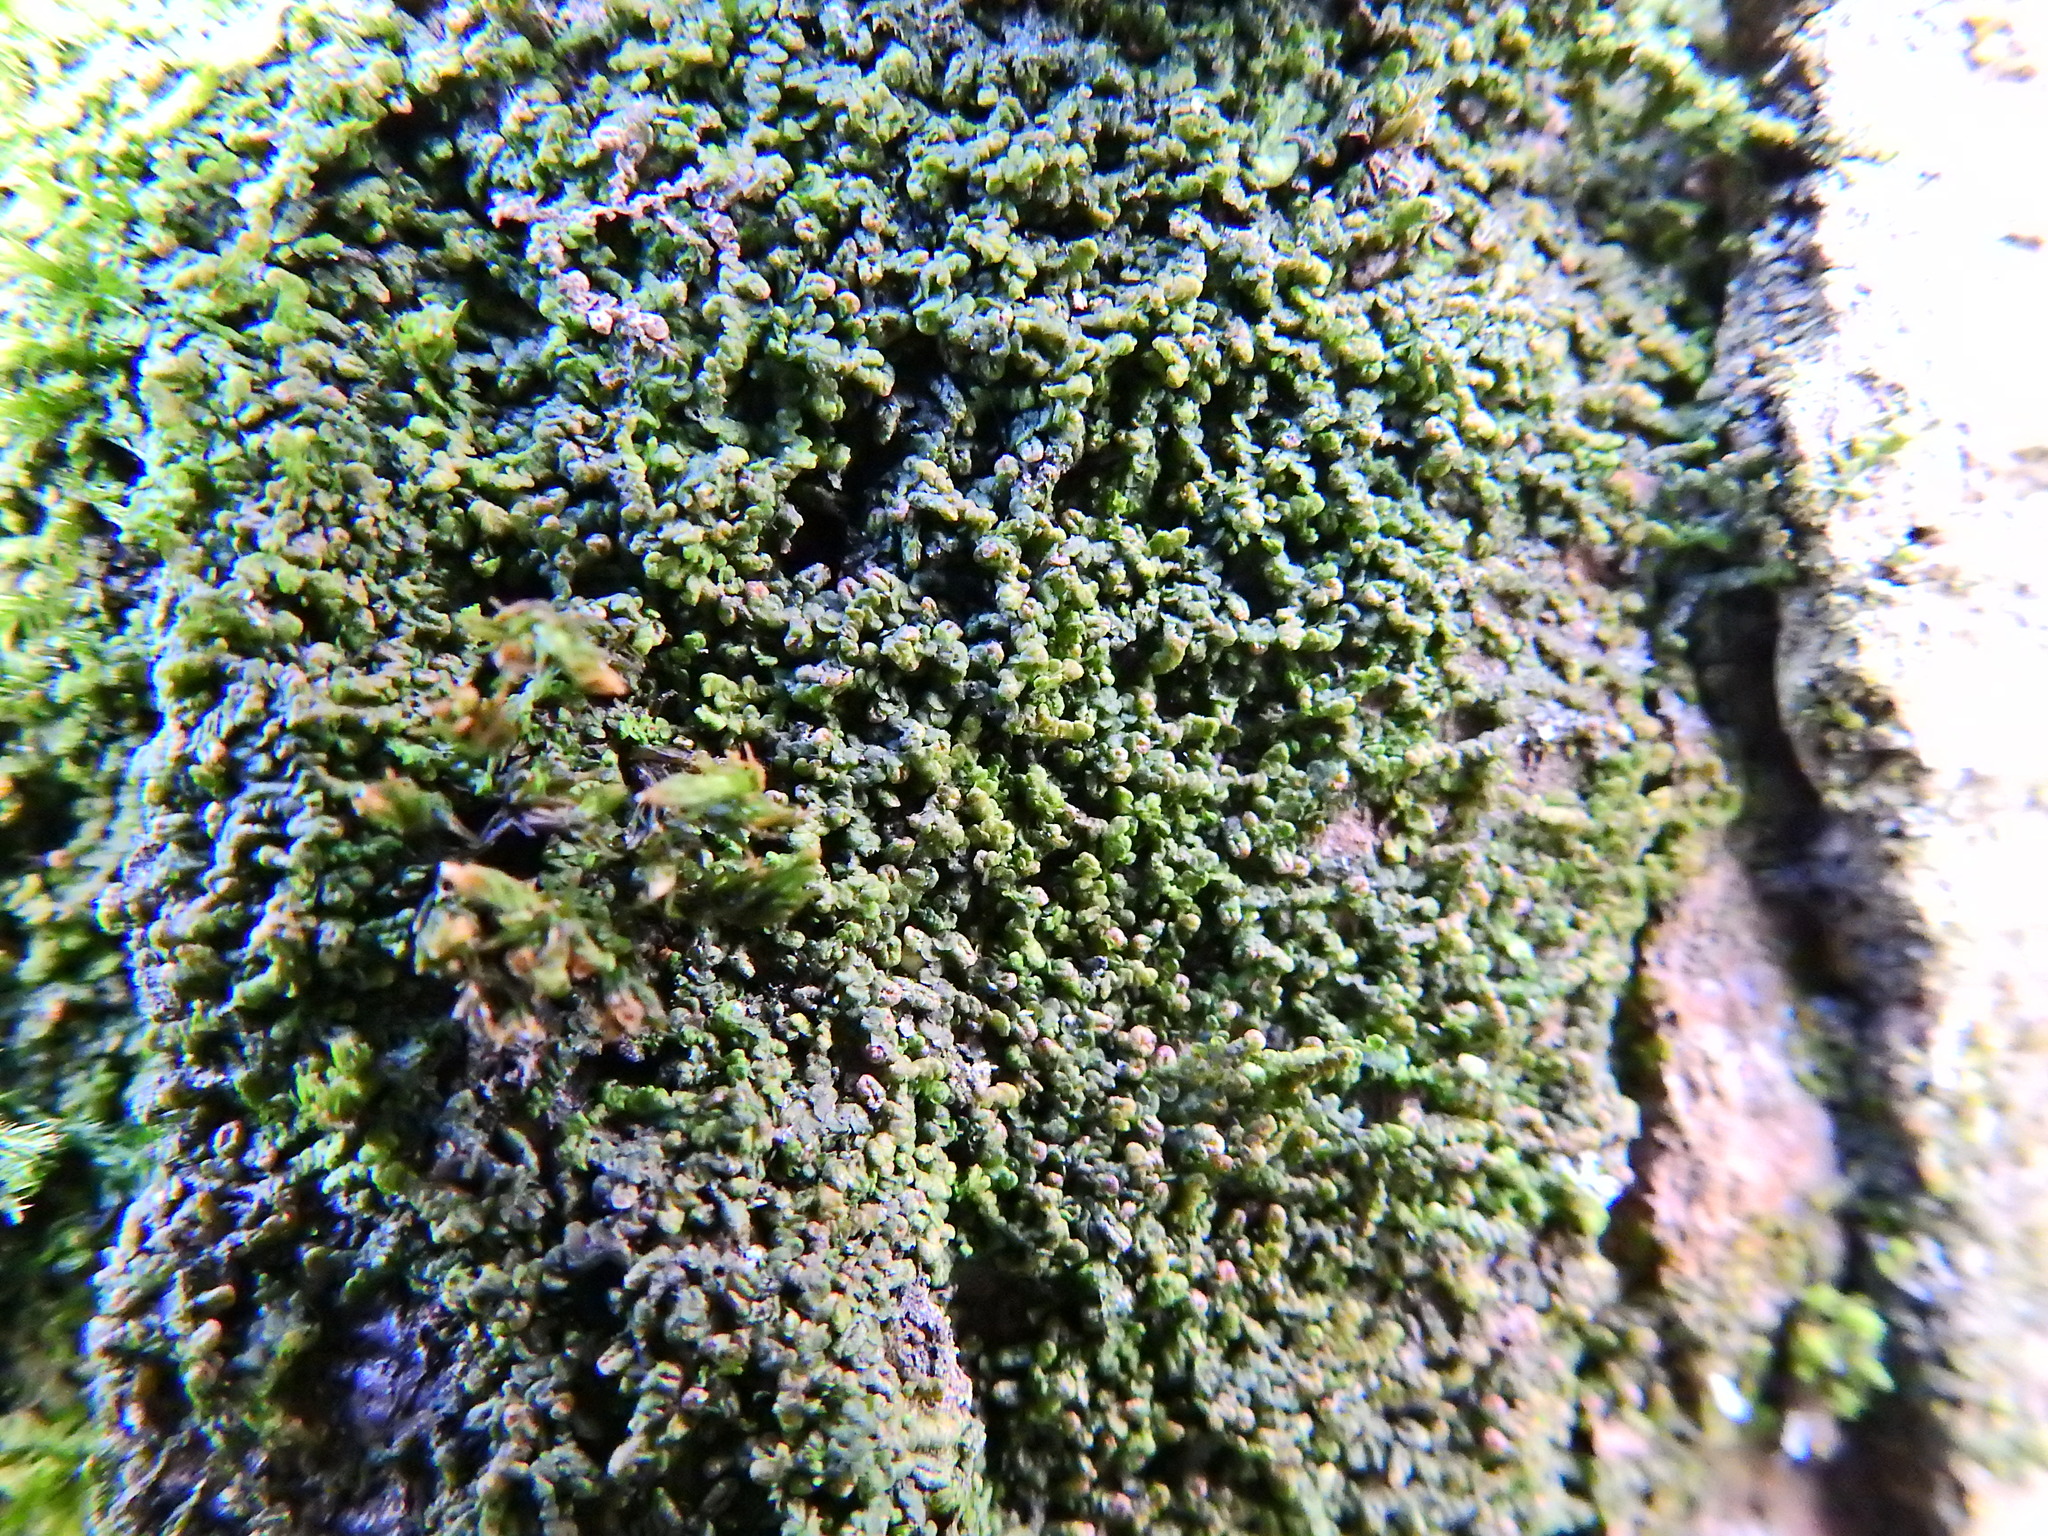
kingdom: Plantae
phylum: Marchantiophyta
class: Jungermanniopsida
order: Porellales
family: Frullaniaceae
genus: Frullania
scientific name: Frullania dilatata
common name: Dilated scalewort
